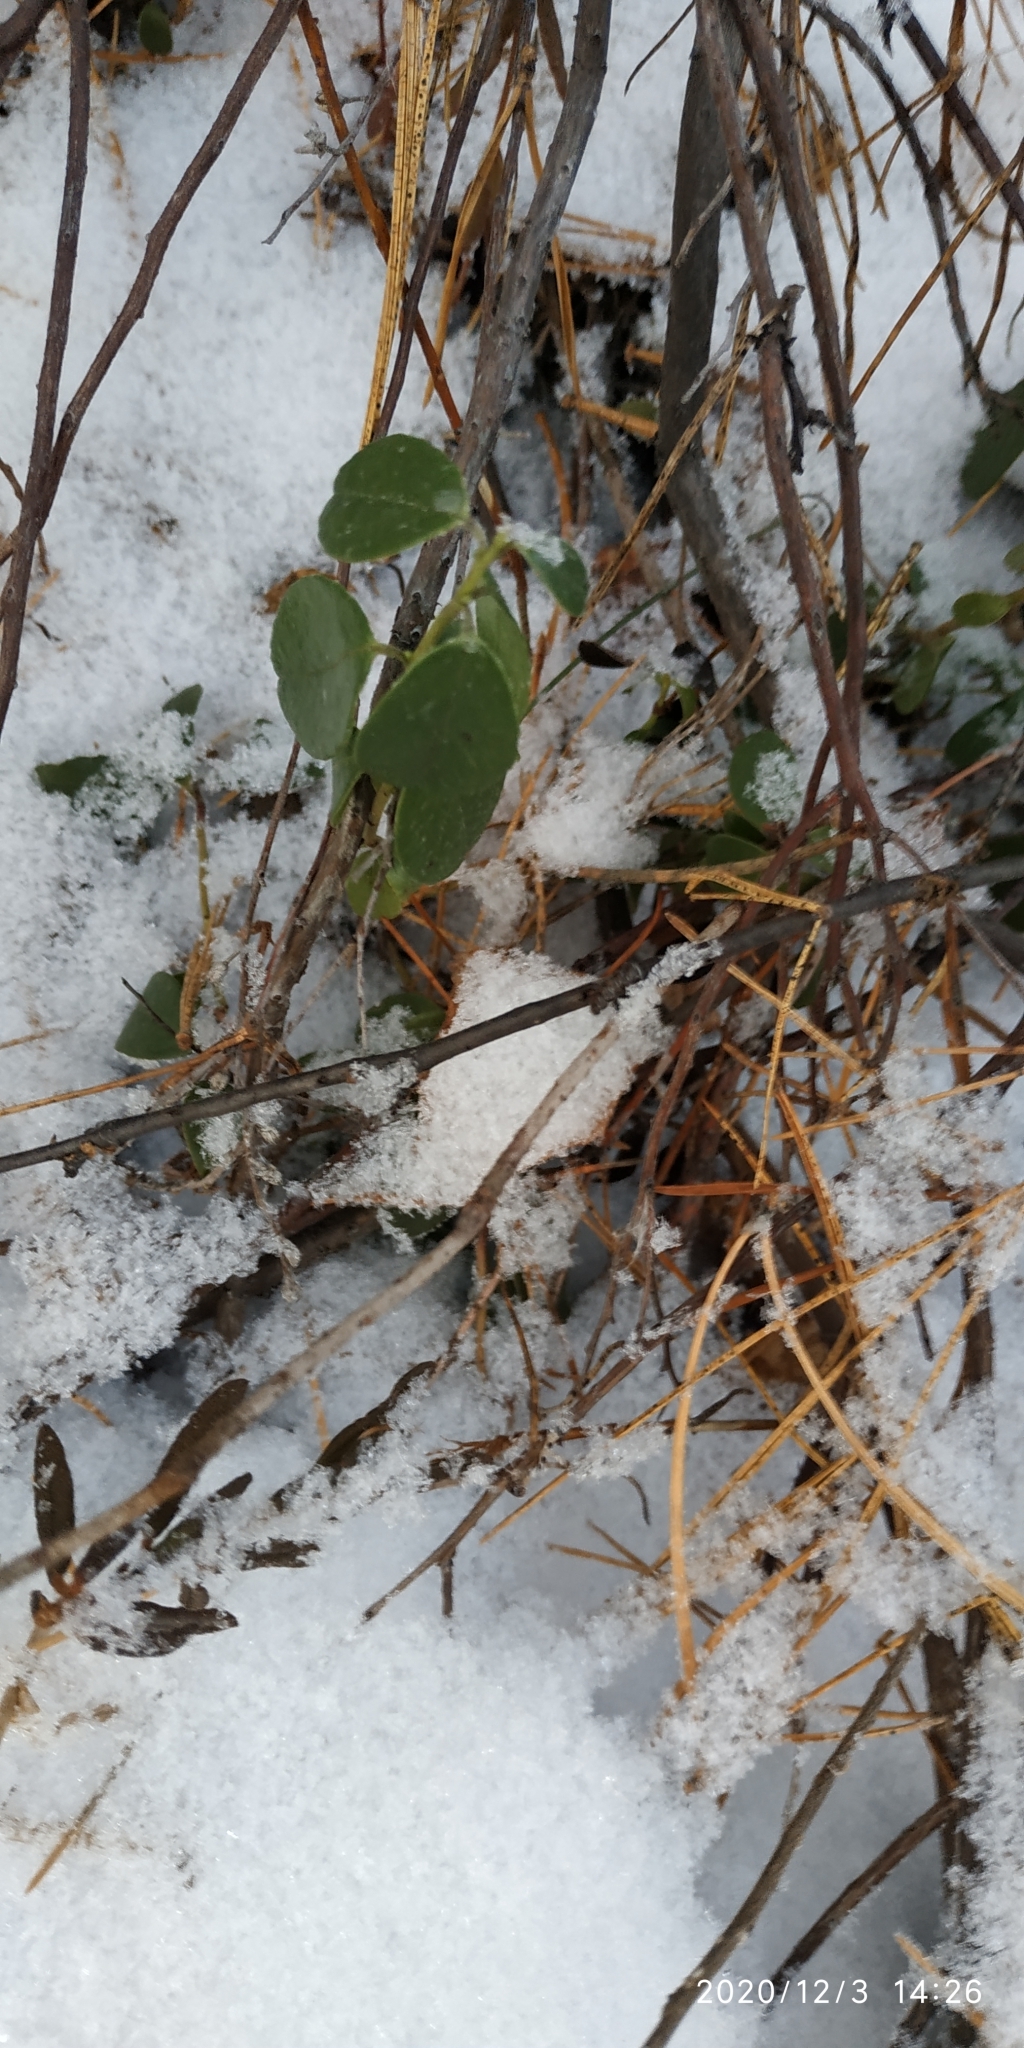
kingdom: Plantae
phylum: Tracheophyta
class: Magnoliopsida
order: Ericales
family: Ericaceae
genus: Vaccinium
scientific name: Vaccinium vitis-idaea
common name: Cowberry
